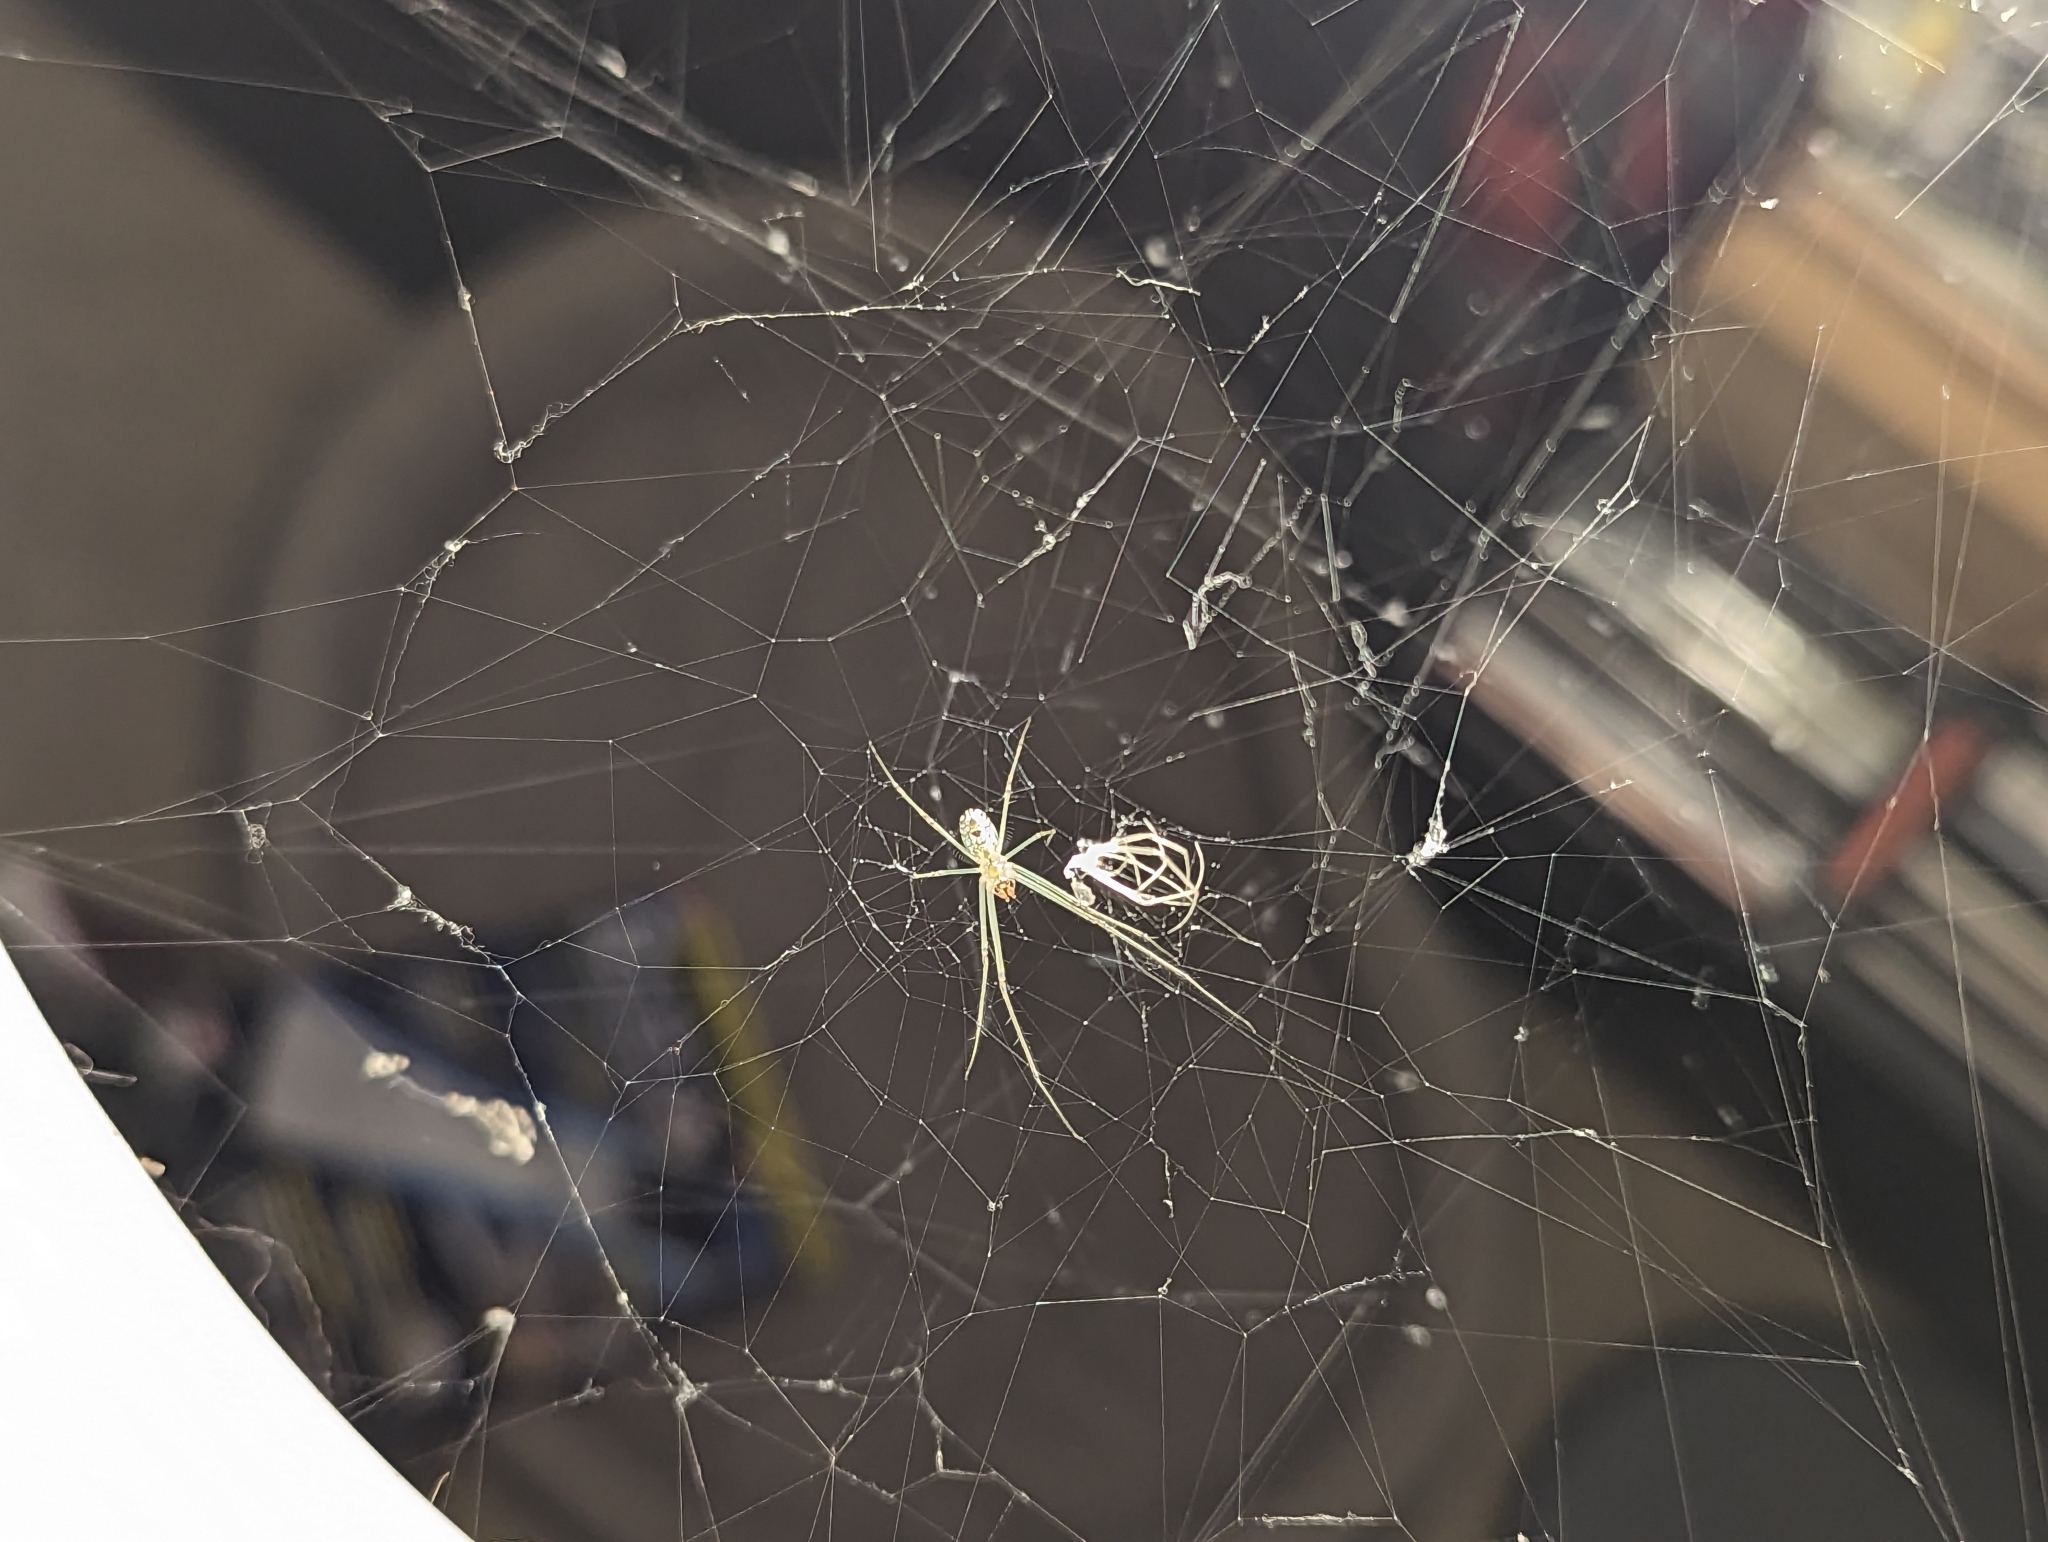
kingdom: Animalia
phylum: Arthropoda
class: Arachnida
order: Araneae
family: Tetragnathidae
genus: Leucauge
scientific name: Leucauge venusta
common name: Longjawed orb weavers
